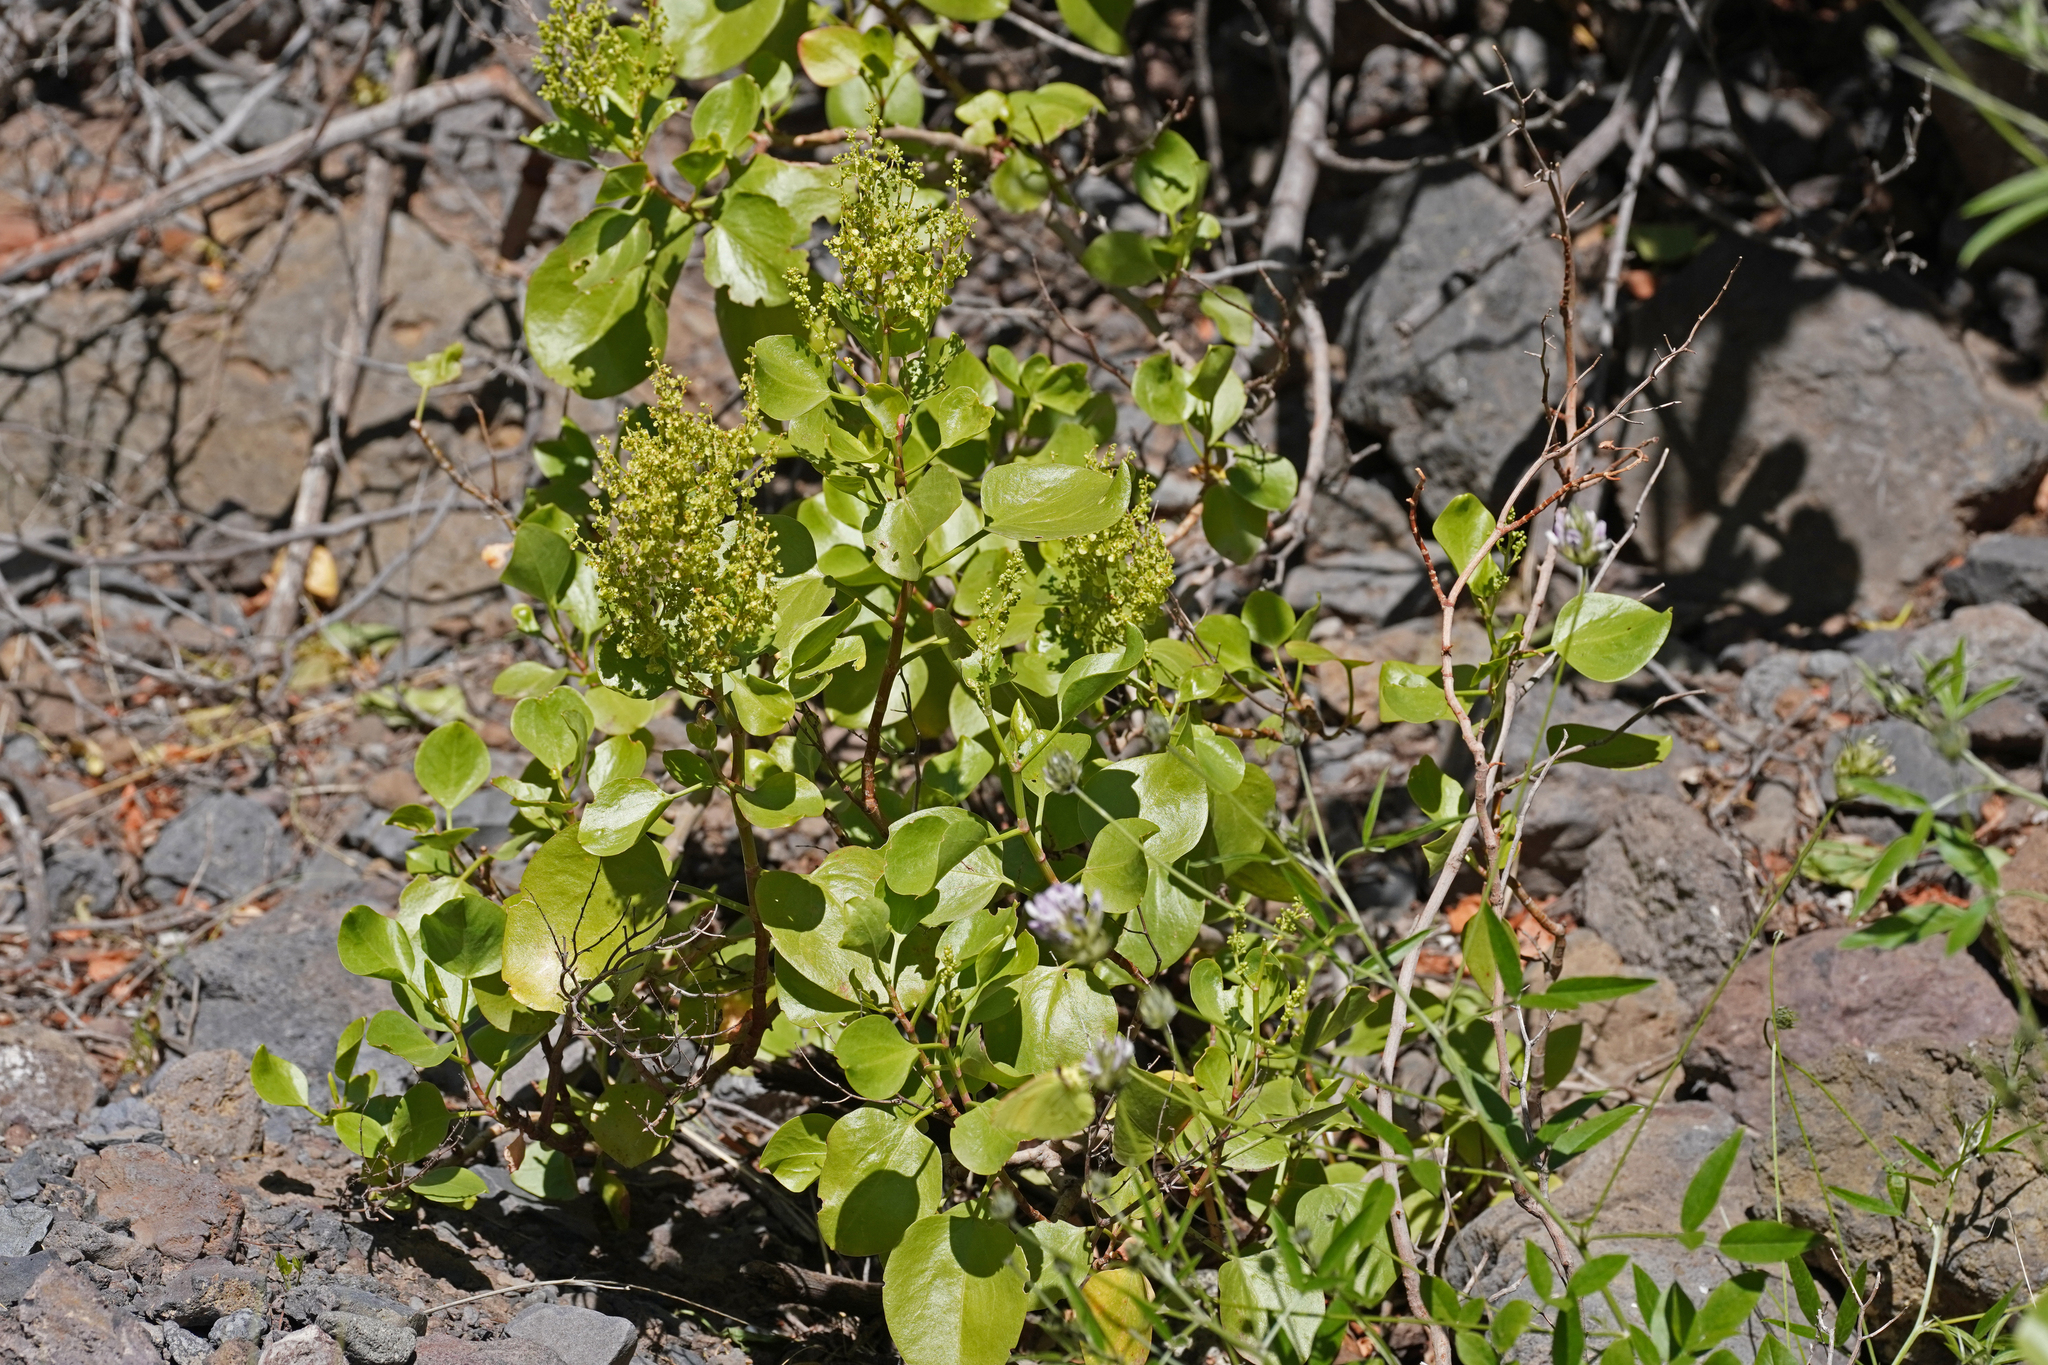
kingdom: Plantae
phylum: Tracheophyta
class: Magnoliopsida
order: Caryophyllales
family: Polygonaceae
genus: Rumex
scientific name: Rumex lunaria
